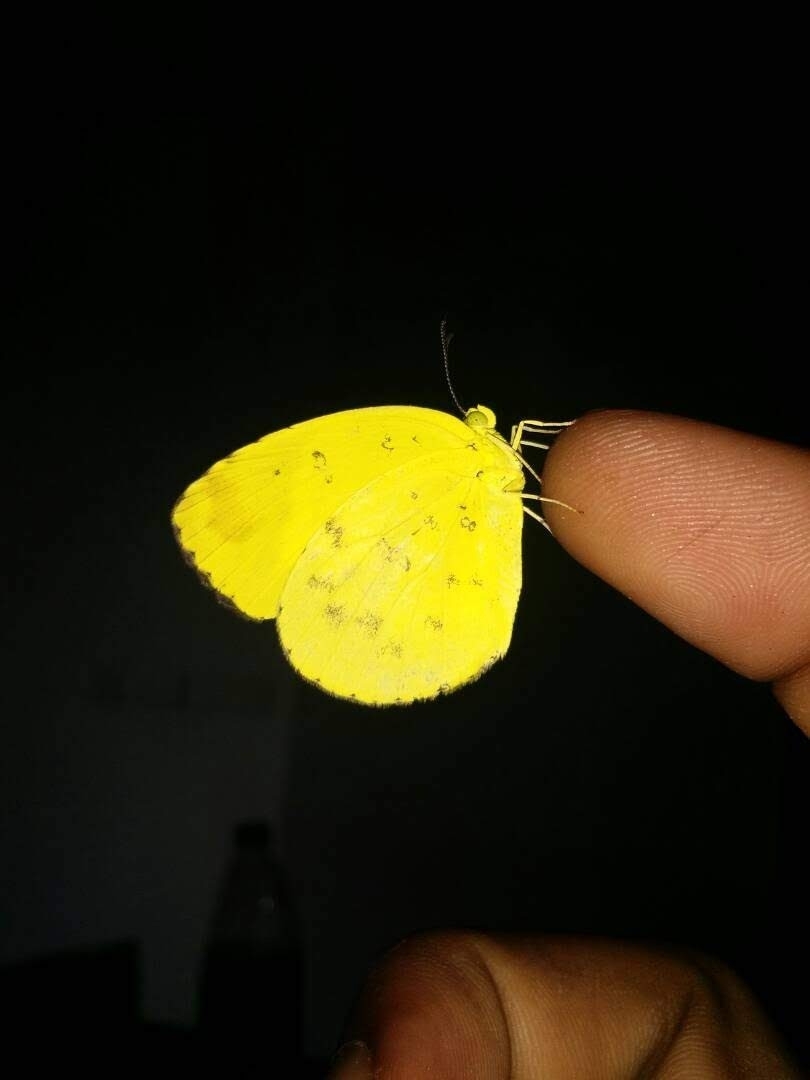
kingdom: Animalia
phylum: Arthropoda
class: Insecta
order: Lepidoptera
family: Pieridae
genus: Eurema
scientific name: Eurema hecabe
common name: Pale grass yellow
